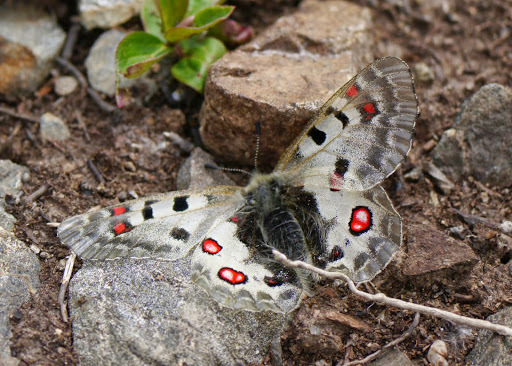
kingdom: Animalia
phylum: Arthropoda
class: Insecta
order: Lepidoptera
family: Papilionidae
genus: Parnassius
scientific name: Parnassius phoebus
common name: Small apollo
